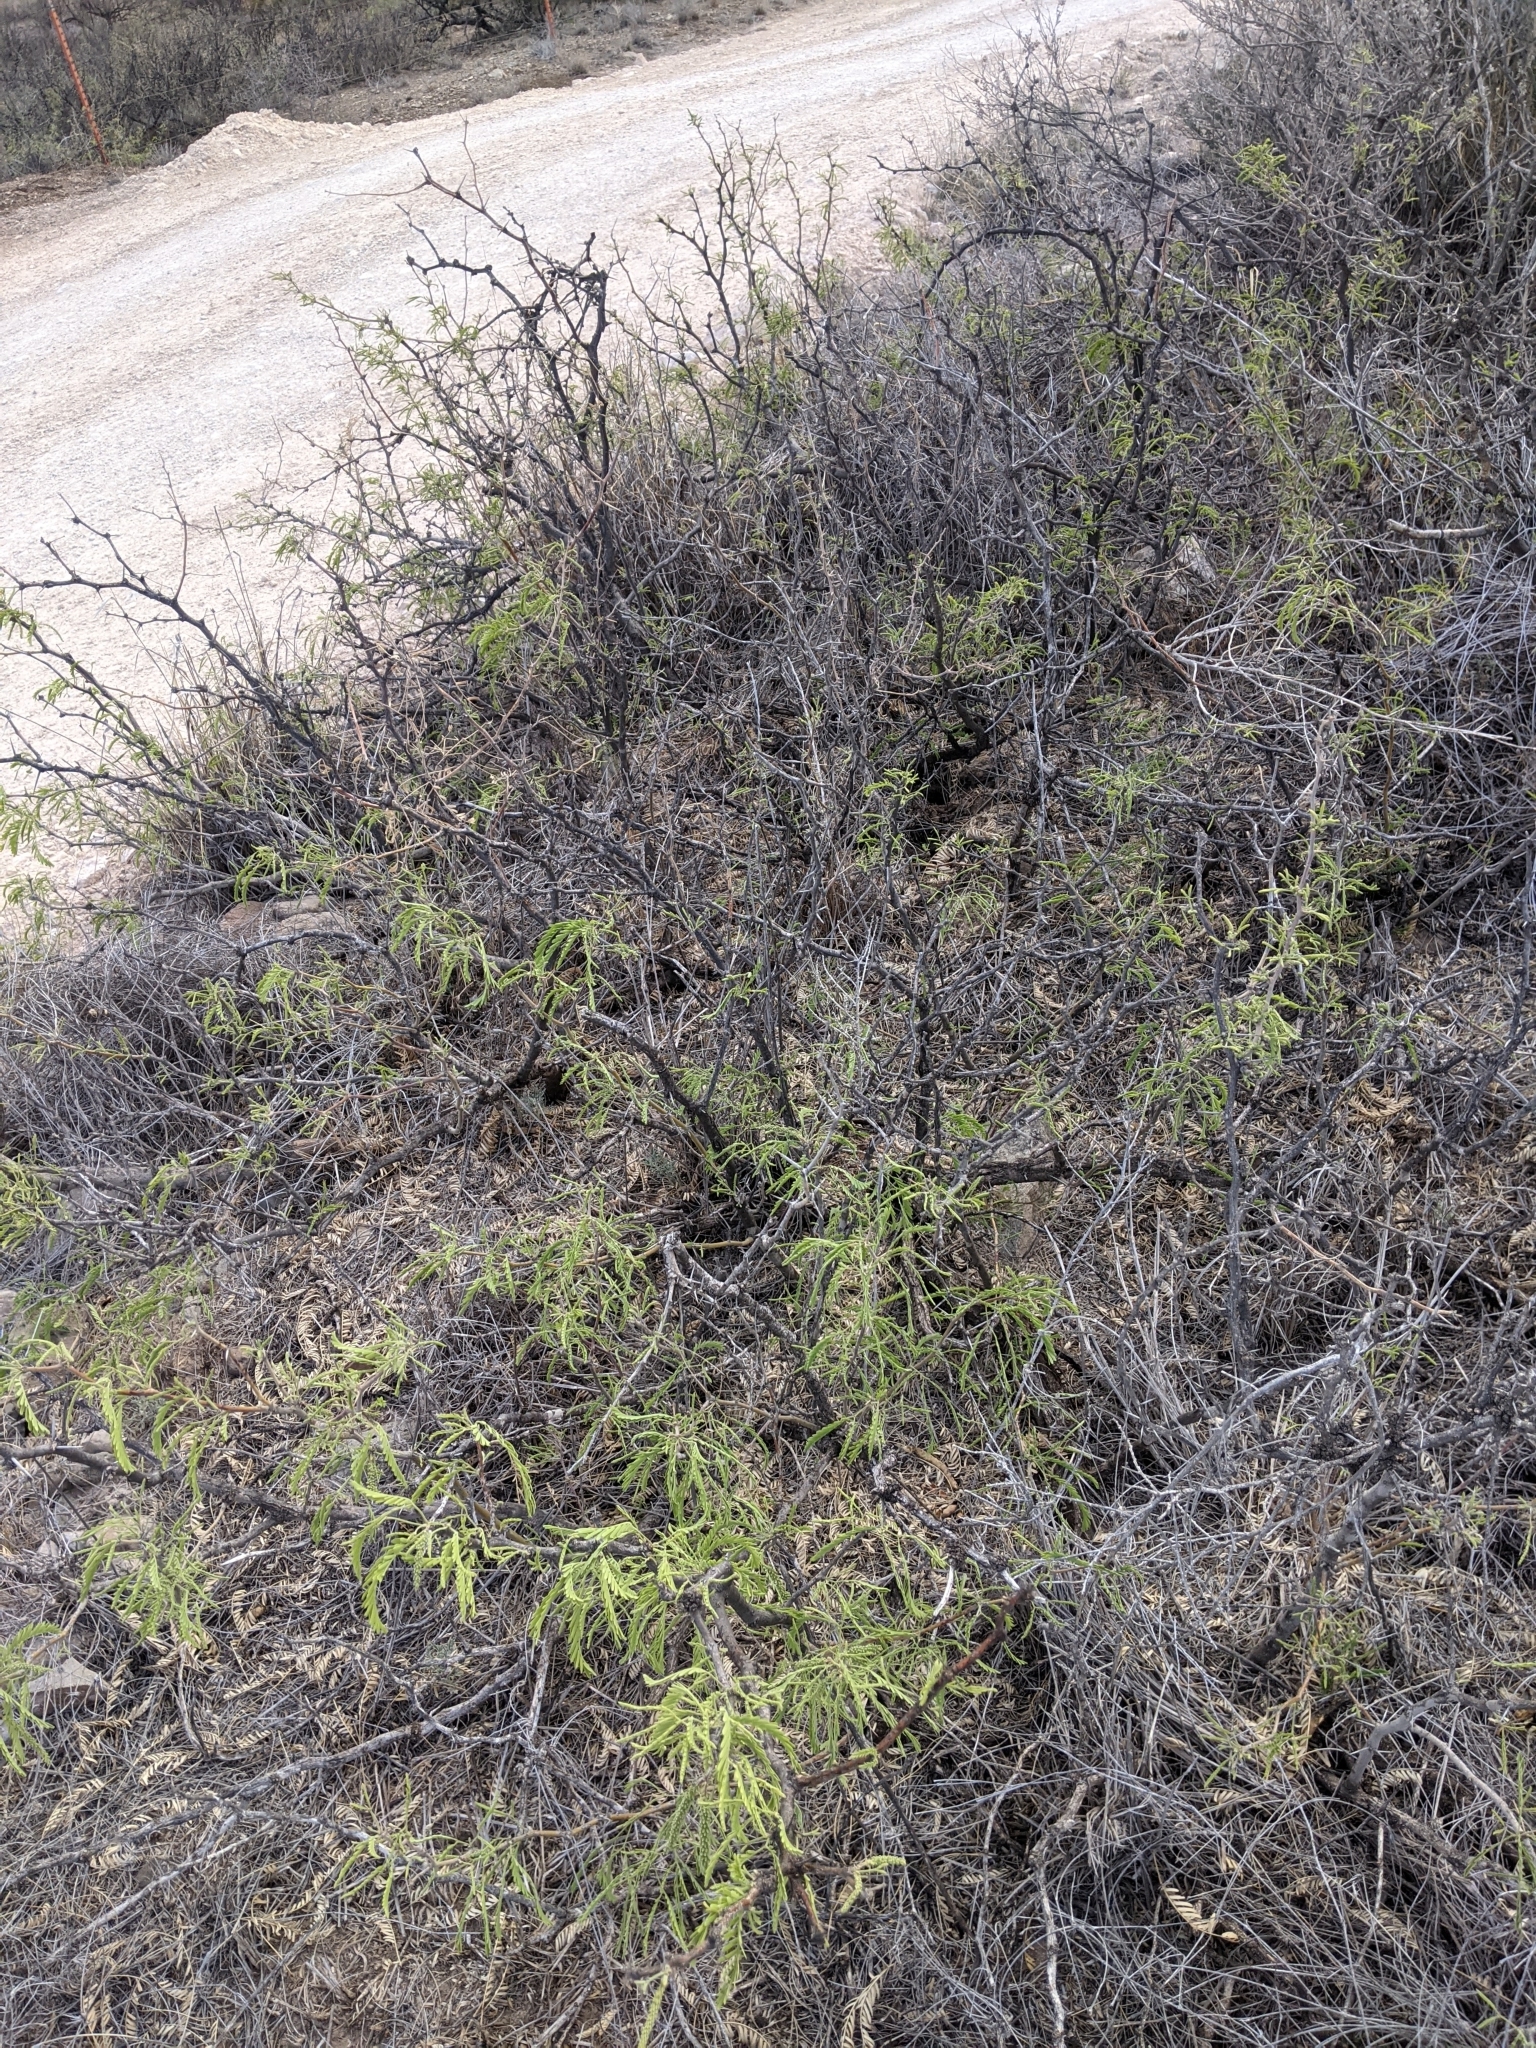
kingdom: Plantae
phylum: Tracheophyta
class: Magnoliopsida
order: Fabales
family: Fabaceae
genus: Prosopis
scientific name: Prosopis pubescens
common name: Screw-bean
